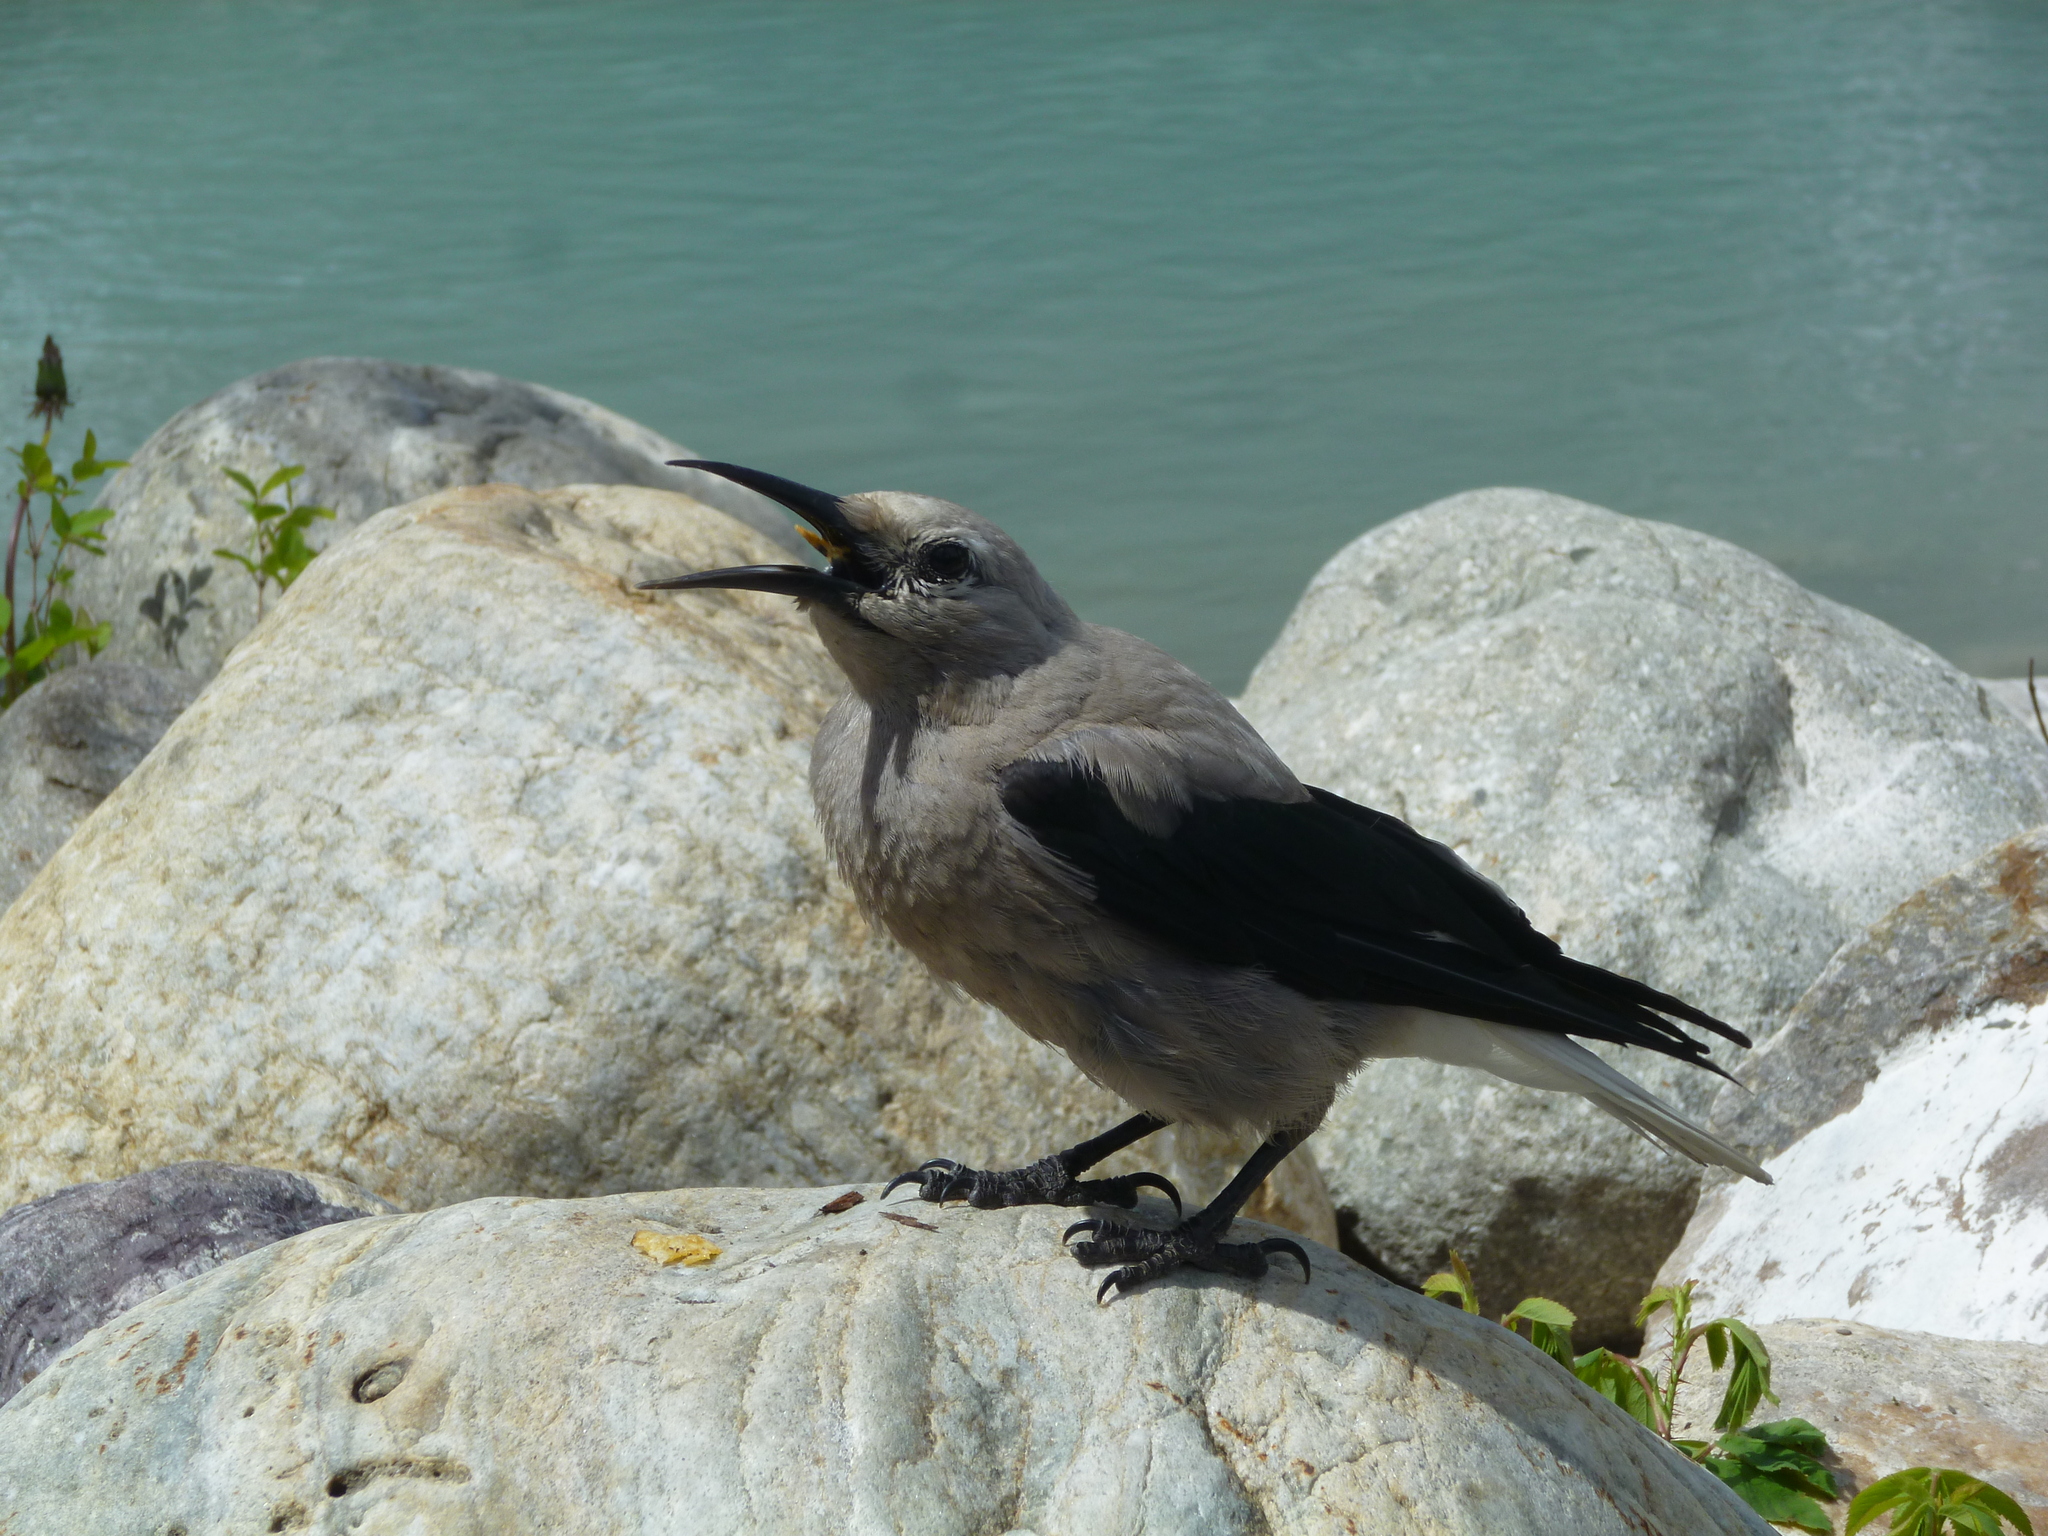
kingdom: Animalia
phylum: Chordata
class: Aves
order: Passeriformes
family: Corvidae
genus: Nucifraga
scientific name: Nucifraga columbiana
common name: Clark's nutcracker
